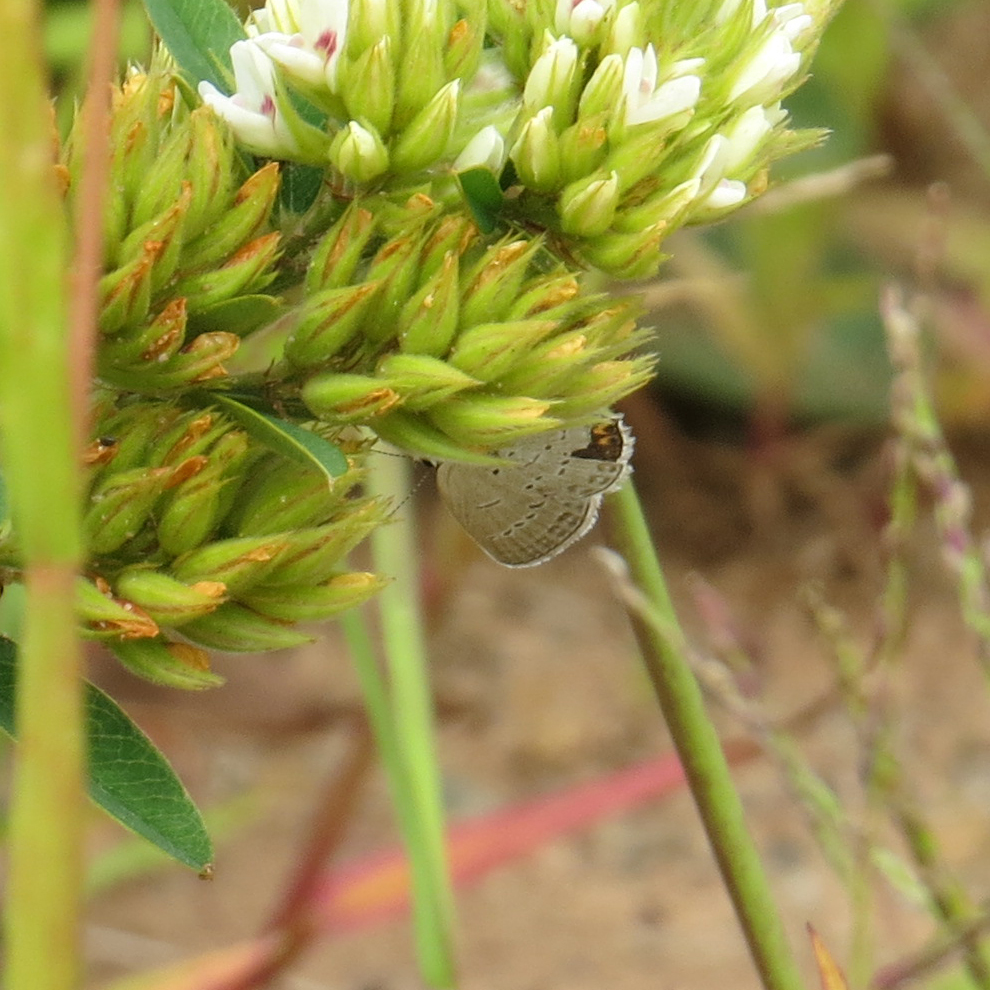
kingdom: Animalia
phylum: Arthropoda
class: Insecta
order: Lepidoptera
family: Lycaenidae
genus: Elkalyce
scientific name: Elkalyce comyntas
